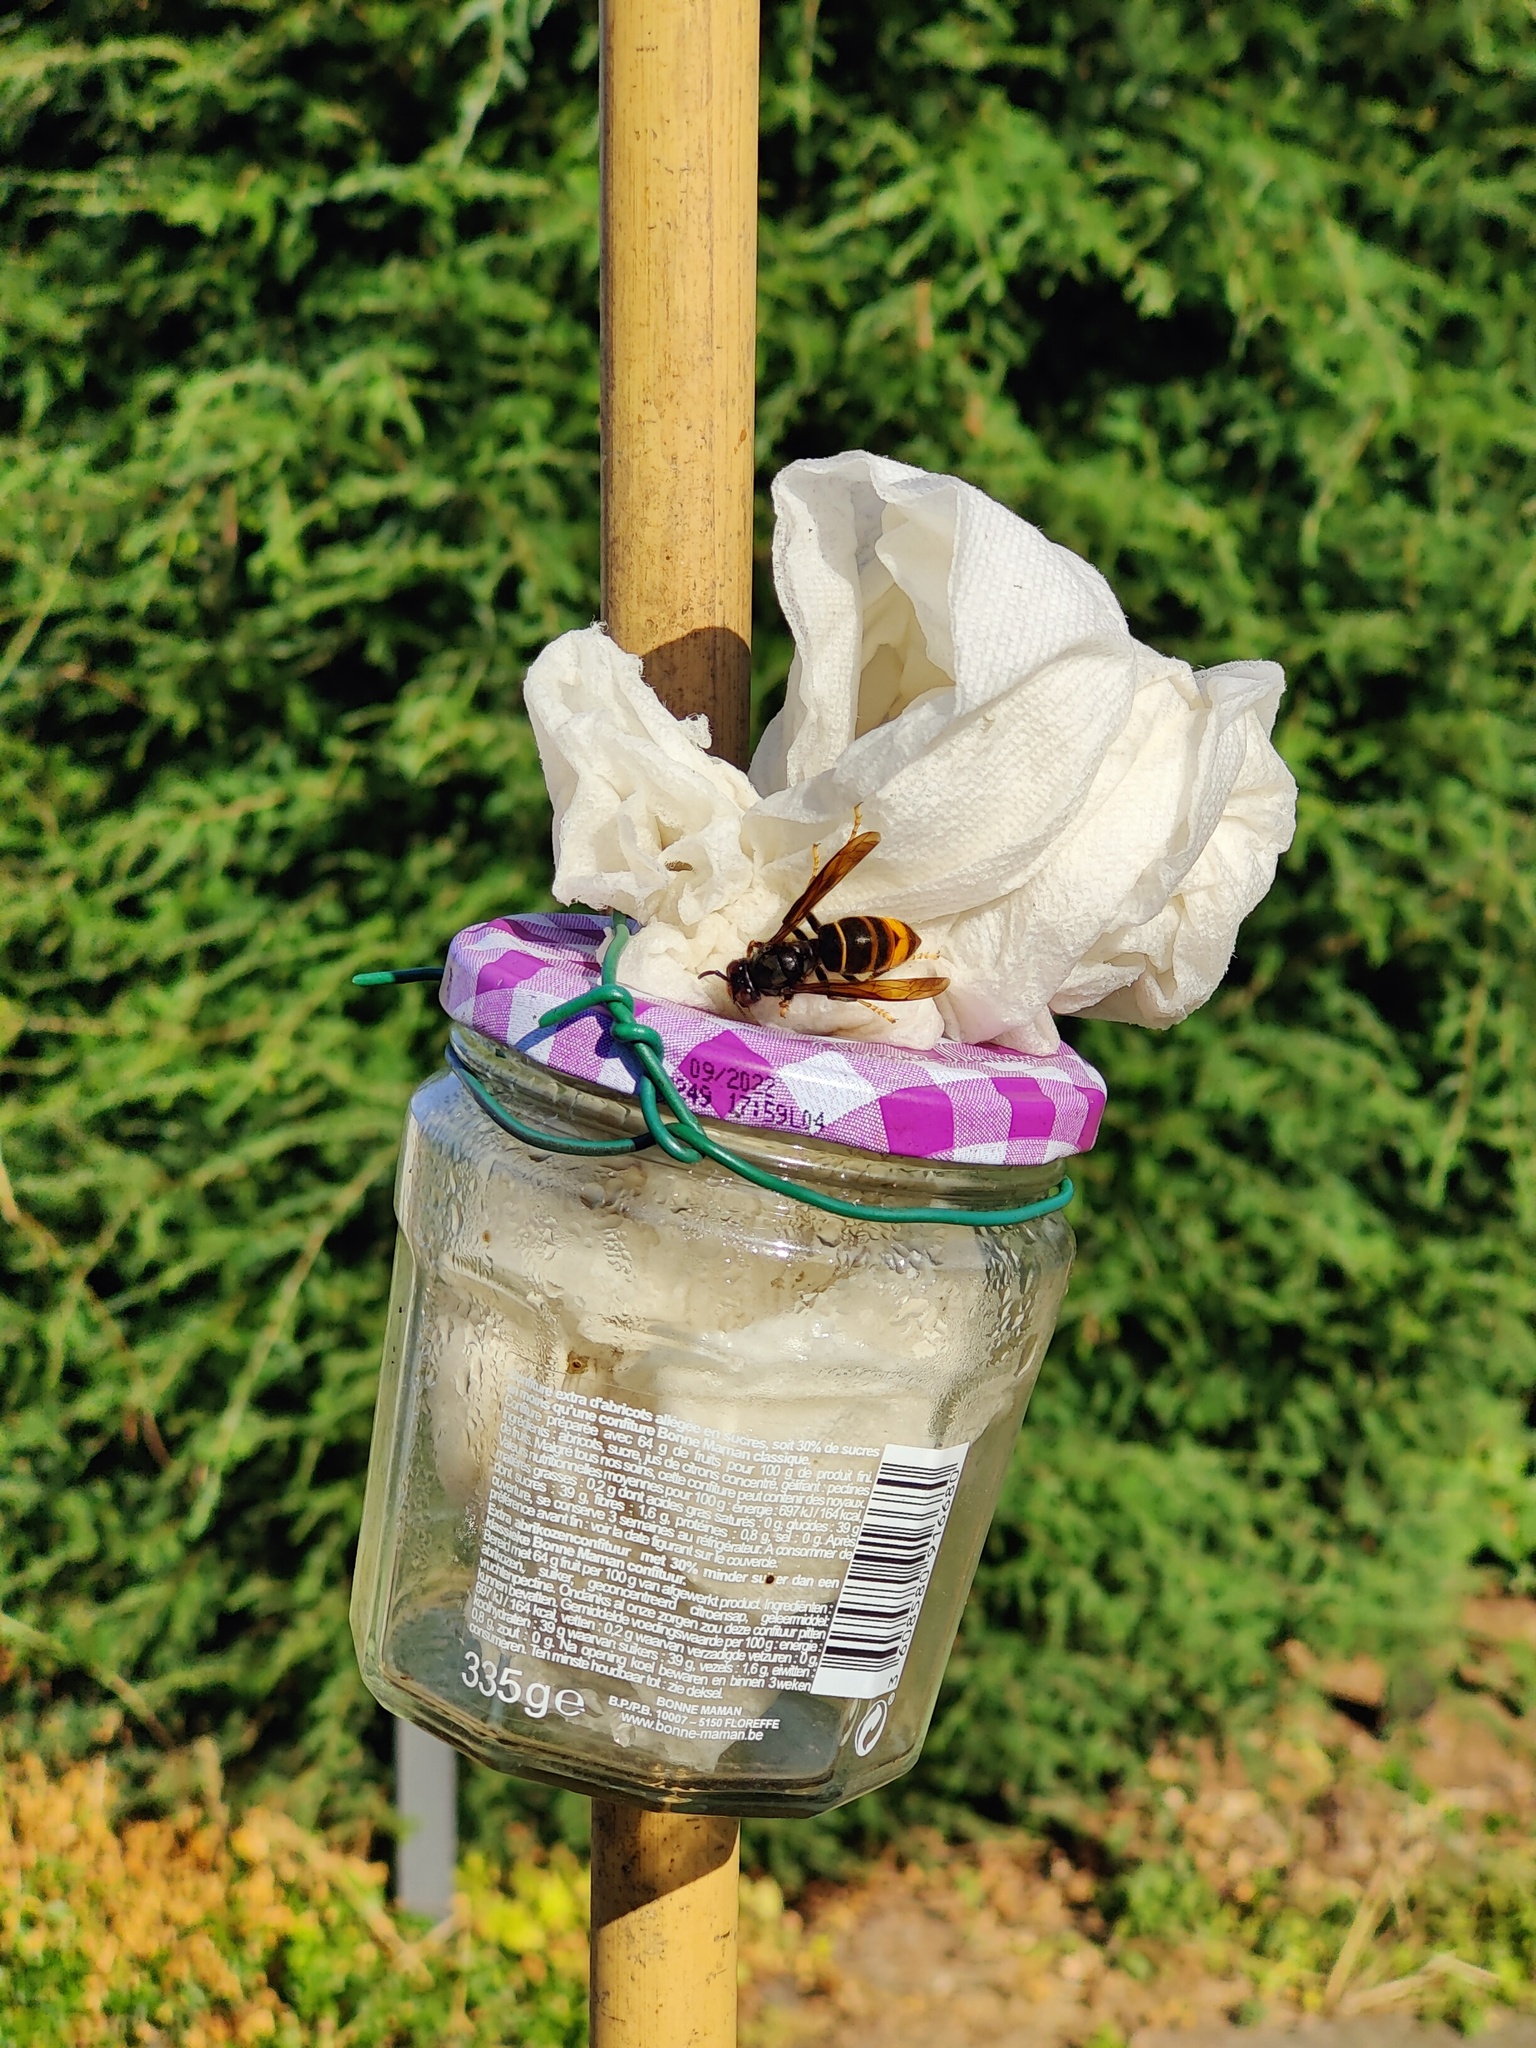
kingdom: Animalia
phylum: Arthropoda
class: Insecta
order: Hymenoptera
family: Vespidae
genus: Vespa
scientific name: Vespa velutina
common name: Asian hornet
